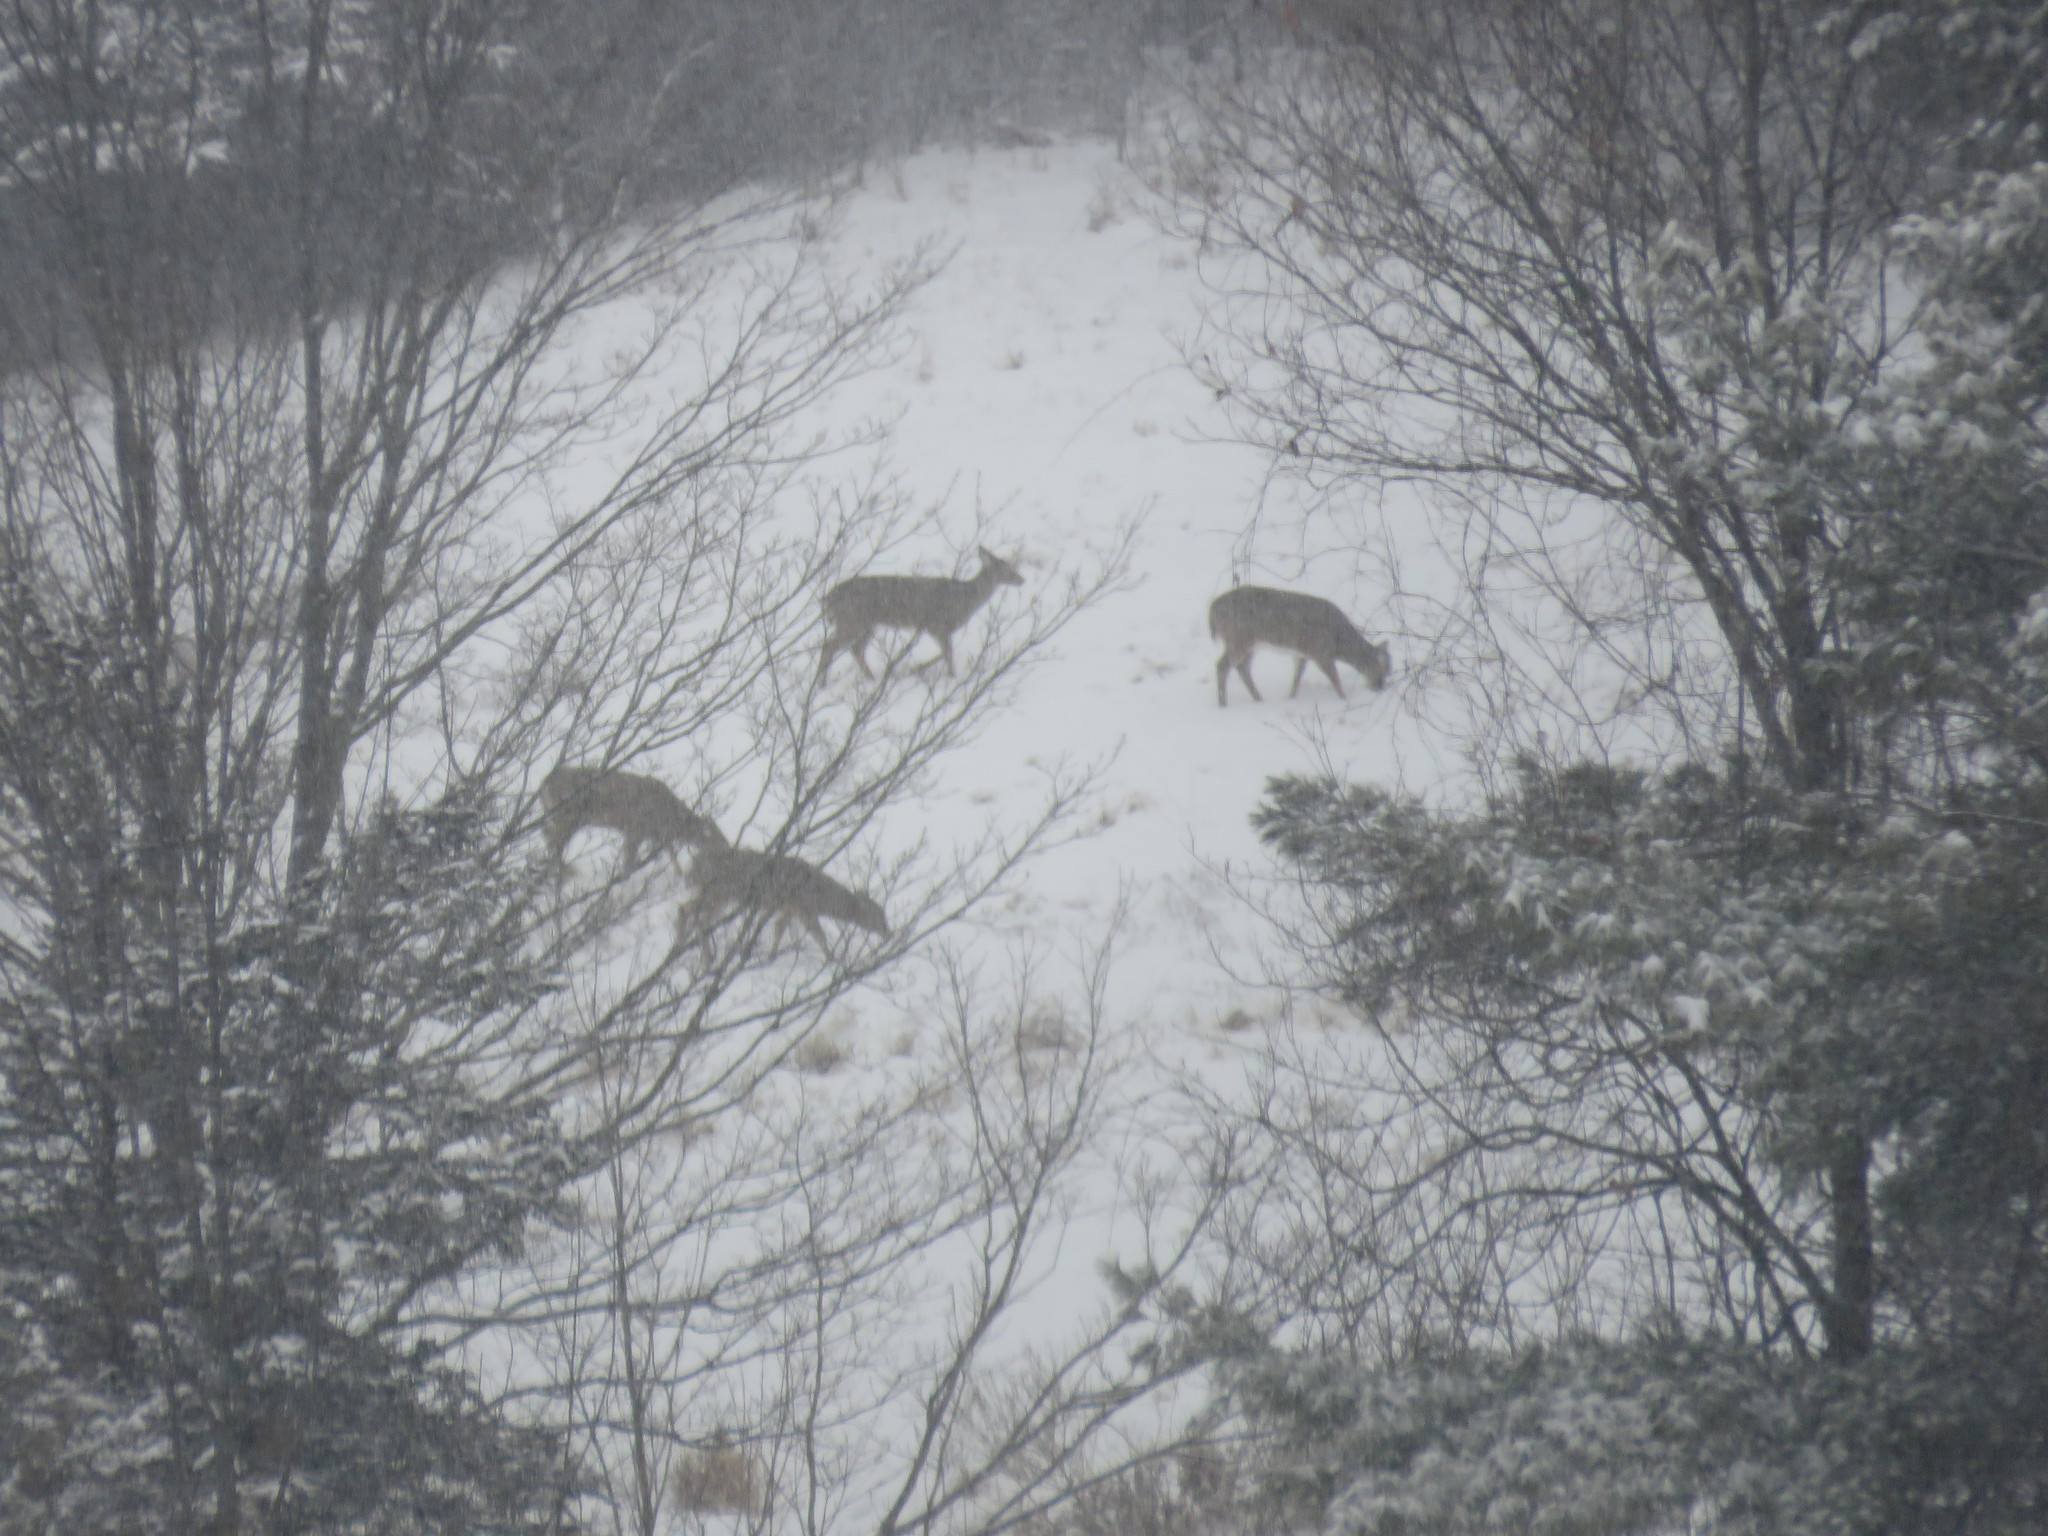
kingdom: Animalia
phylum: Chordata
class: Mammalia
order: Artiodactyla
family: Cervidae
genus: Odocoileus
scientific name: Odocoileus virginianus
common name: White-tailed deer
